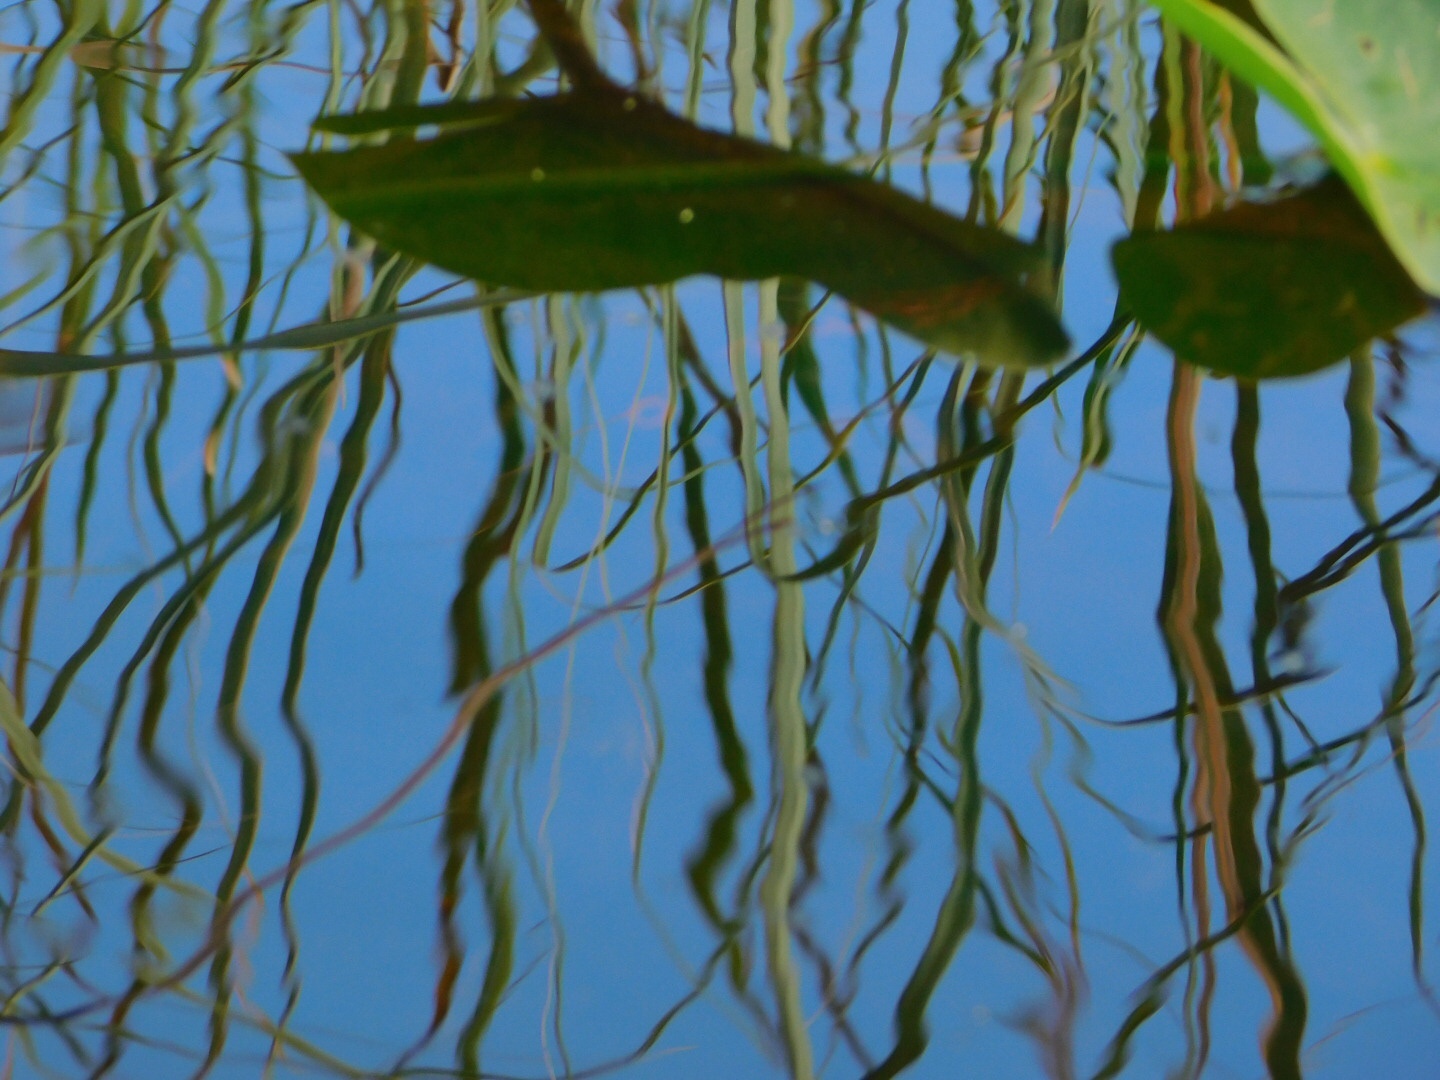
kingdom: Animalia
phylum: Chordata
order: Perciformes
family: Cichlidae
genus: Astronotus
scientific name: Astronotus ocellatus
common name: Oscar
